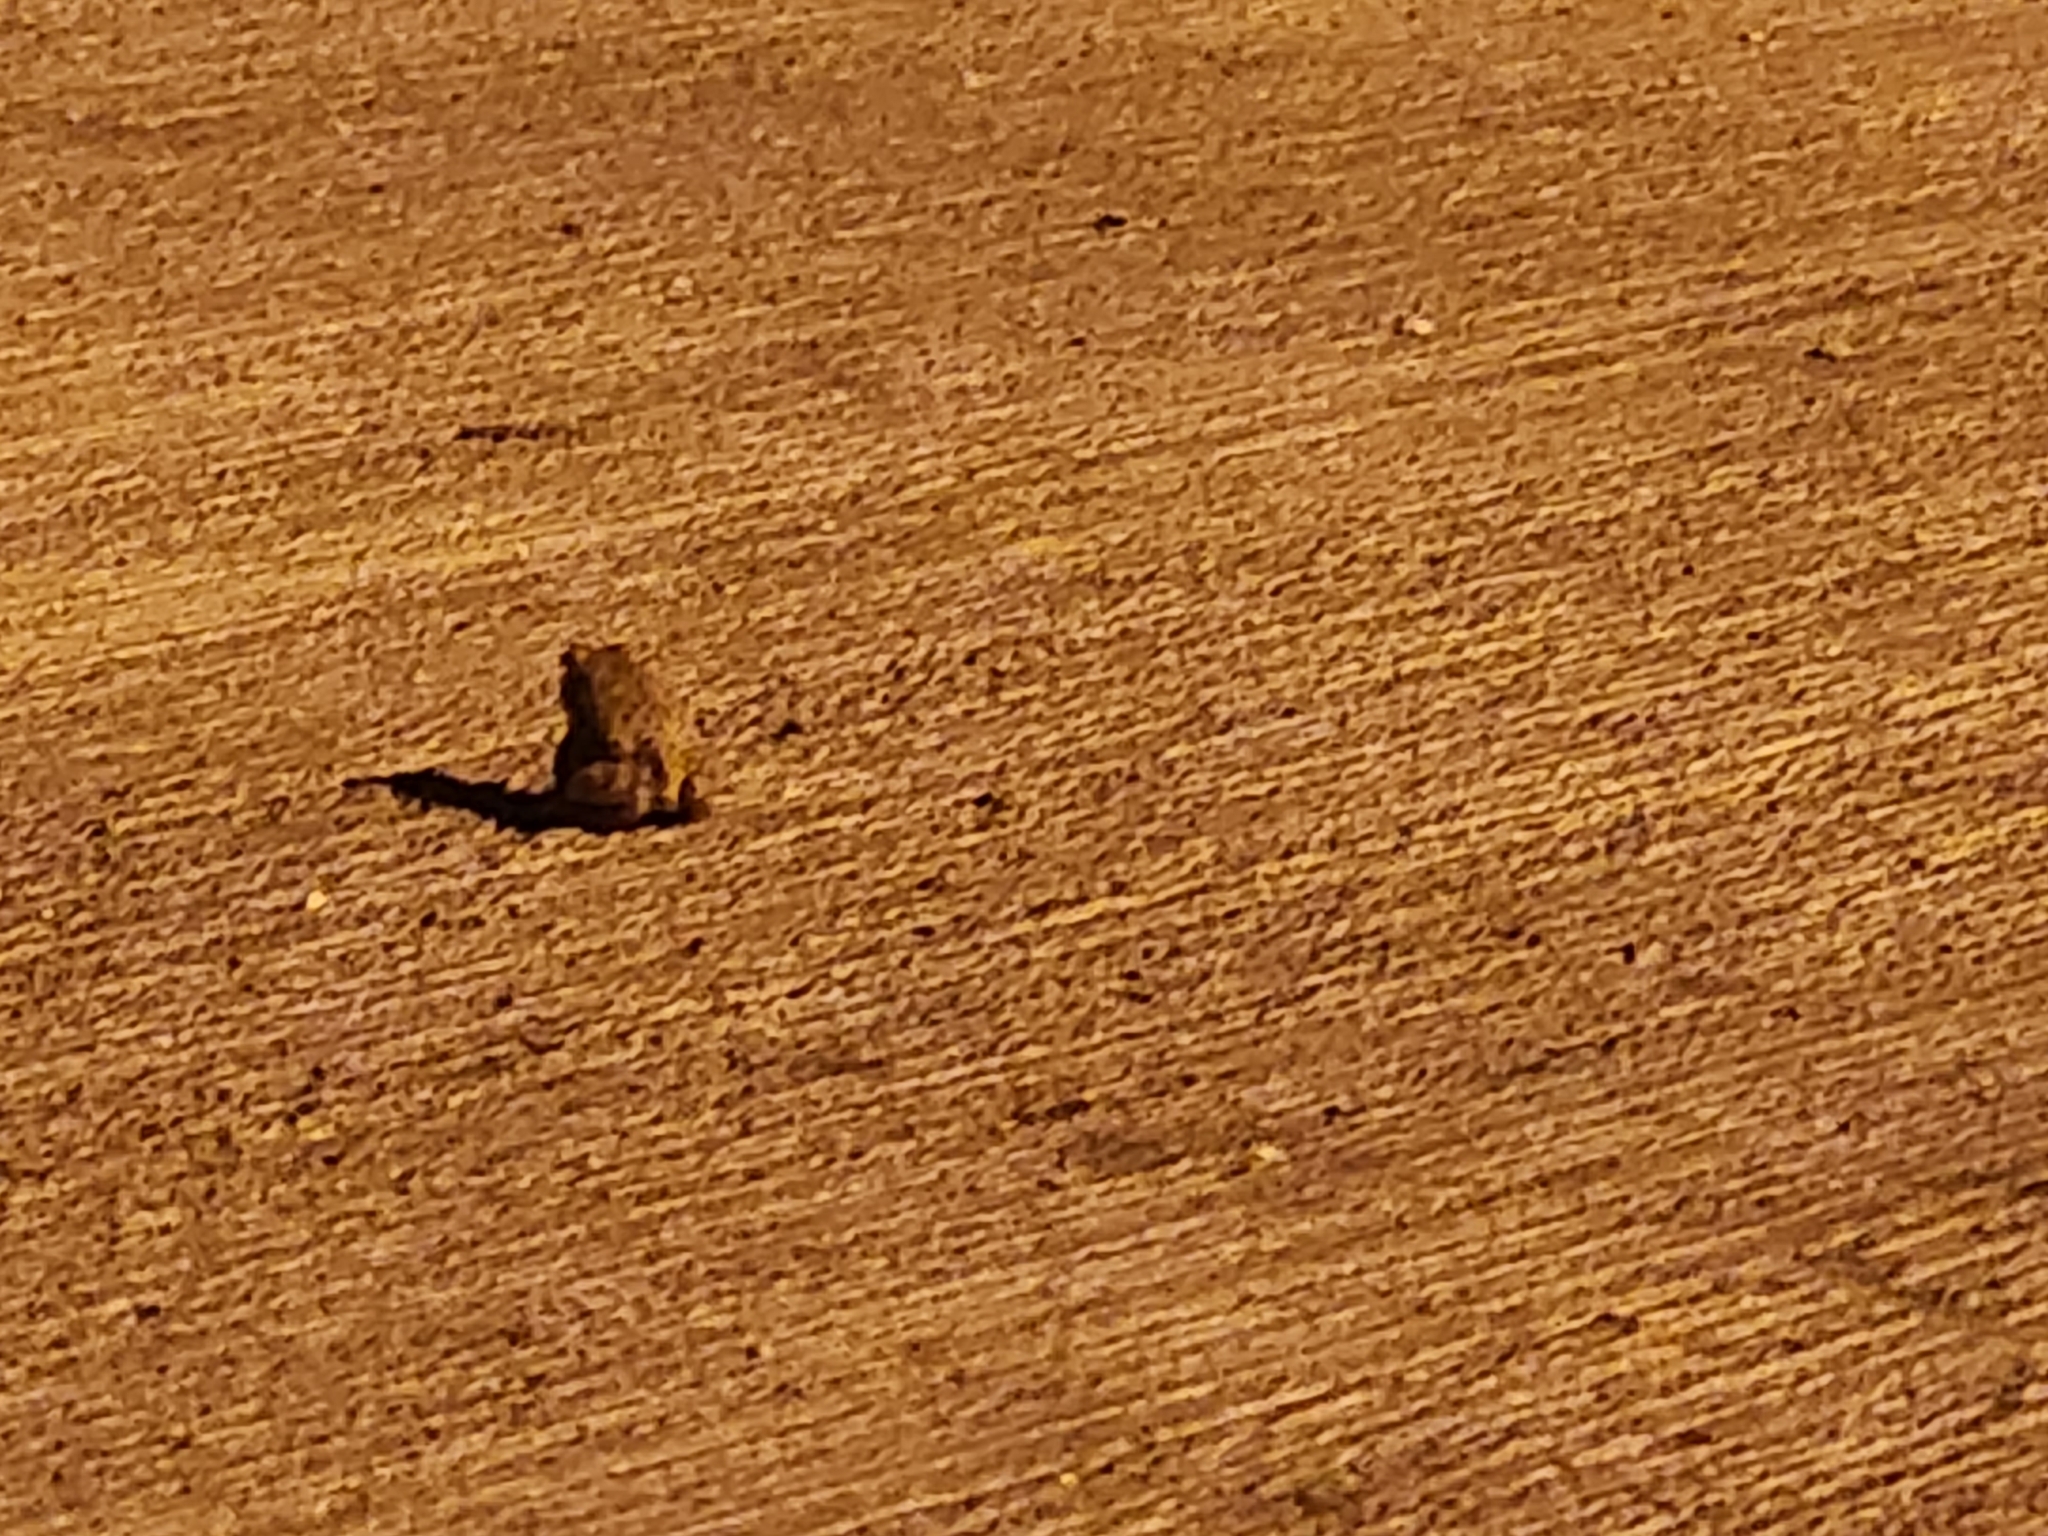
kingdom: Animalia
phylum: Chordata
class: Amphibia
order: Anura
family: Bufonidae
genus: Anaxyrus
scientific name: Anaxyrus woodhousii
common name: Woodhouse's toad
